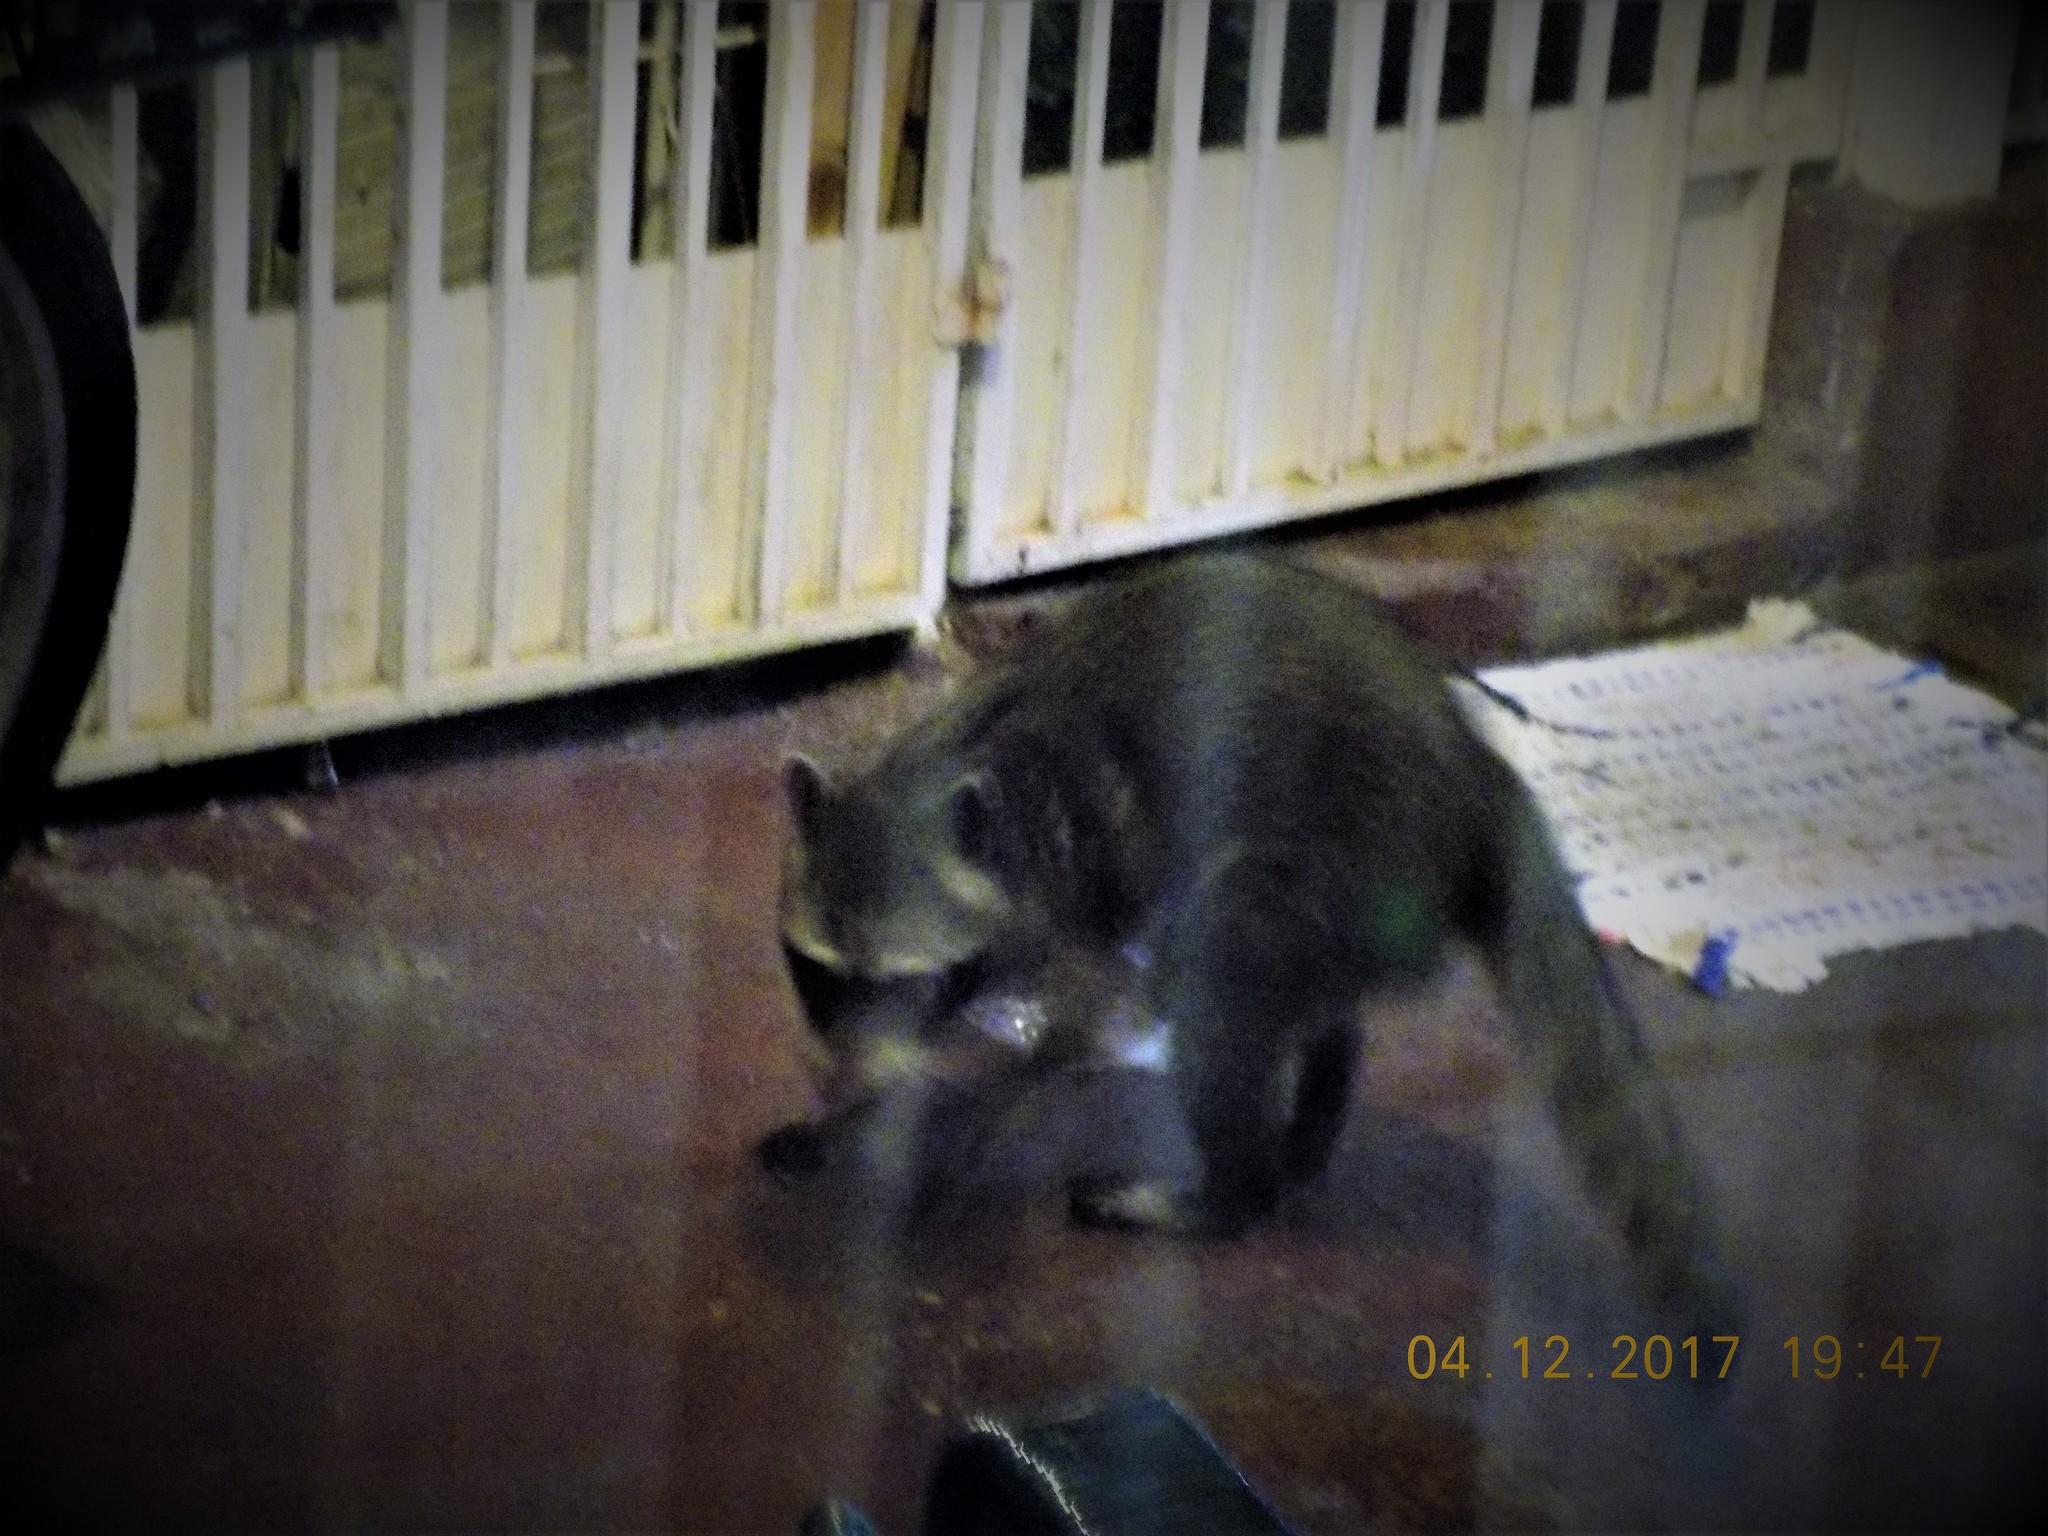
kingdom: Animalia
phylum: Chordata
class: Mammalia
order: Carnivora
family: Procyonidae
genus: Procyon
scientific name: Procyon lotor
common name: Raccoon
